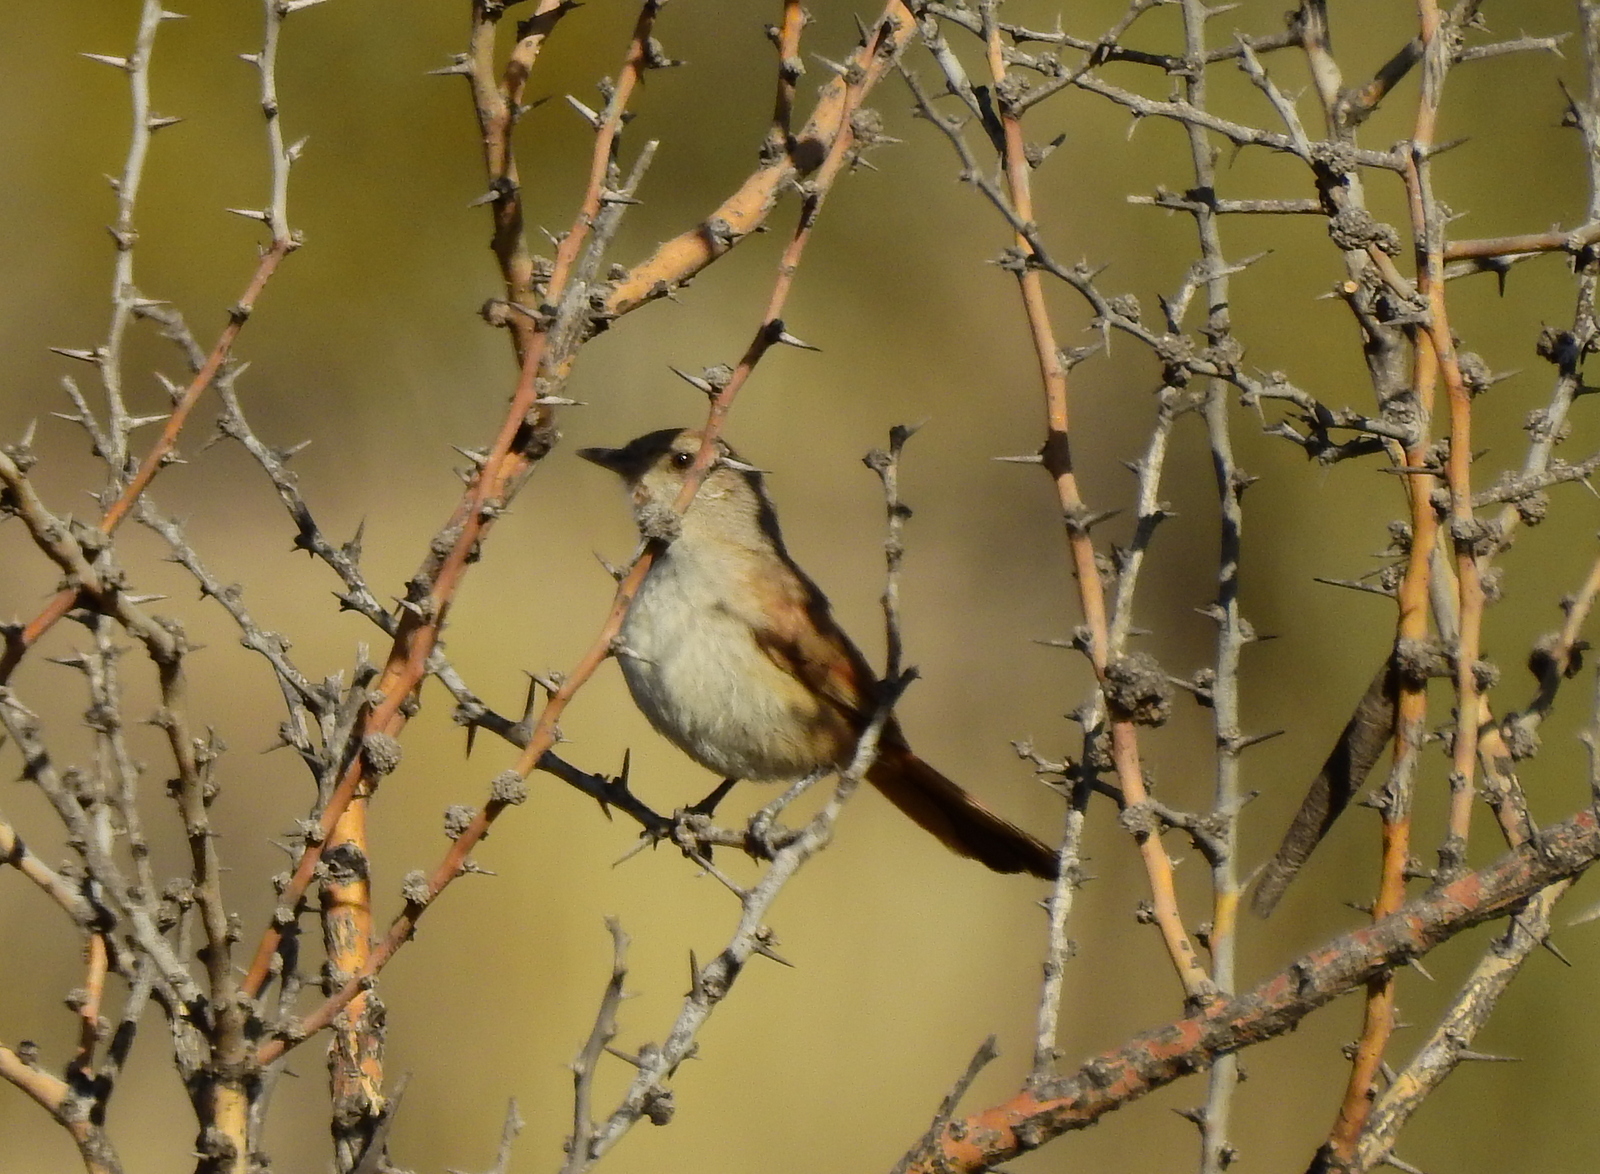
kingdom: Animalia
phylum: Chordata
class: Aves
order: Passeriformes
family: Furnariidae
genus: Asthenes
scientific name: Asthenes steinbachi
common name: Steinbach's canastero
